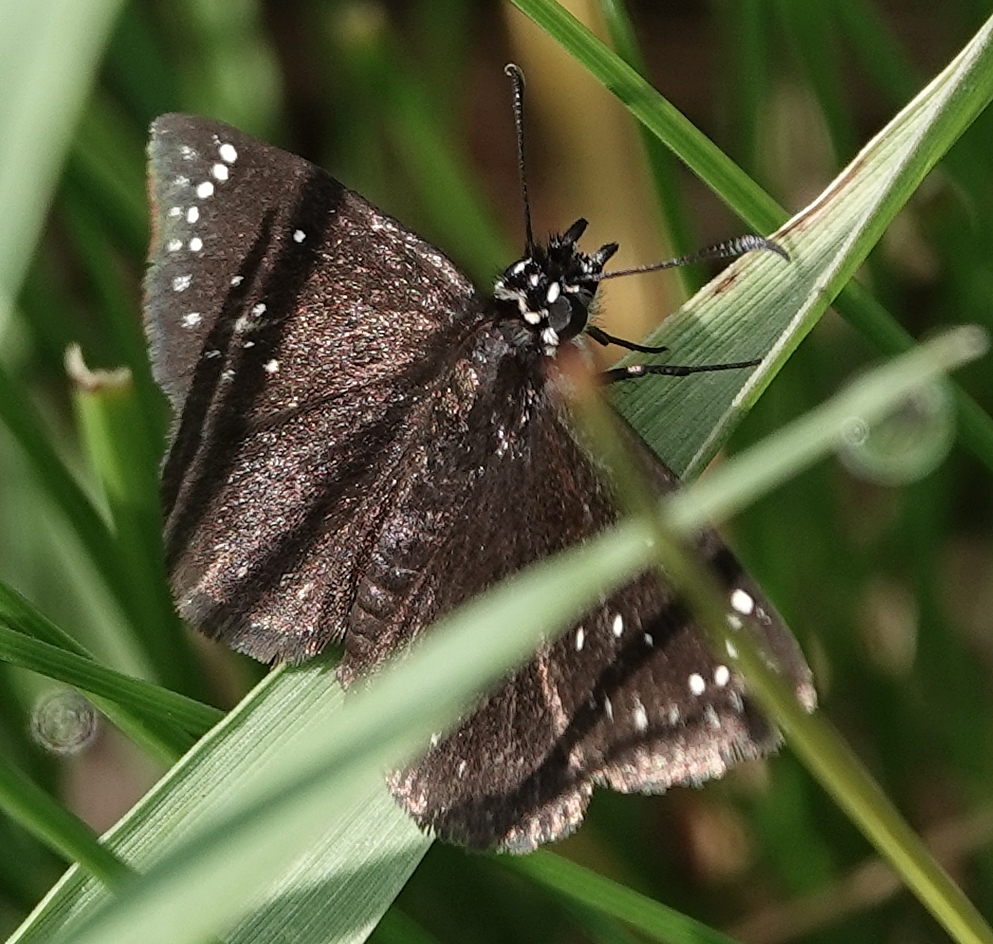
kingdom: Animalia
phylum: Arthropoda
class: Insecta
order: Lepidoptera
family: Hesperiidae
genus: Pholisora
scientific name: Pholisora catullus
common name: Common sootywing
